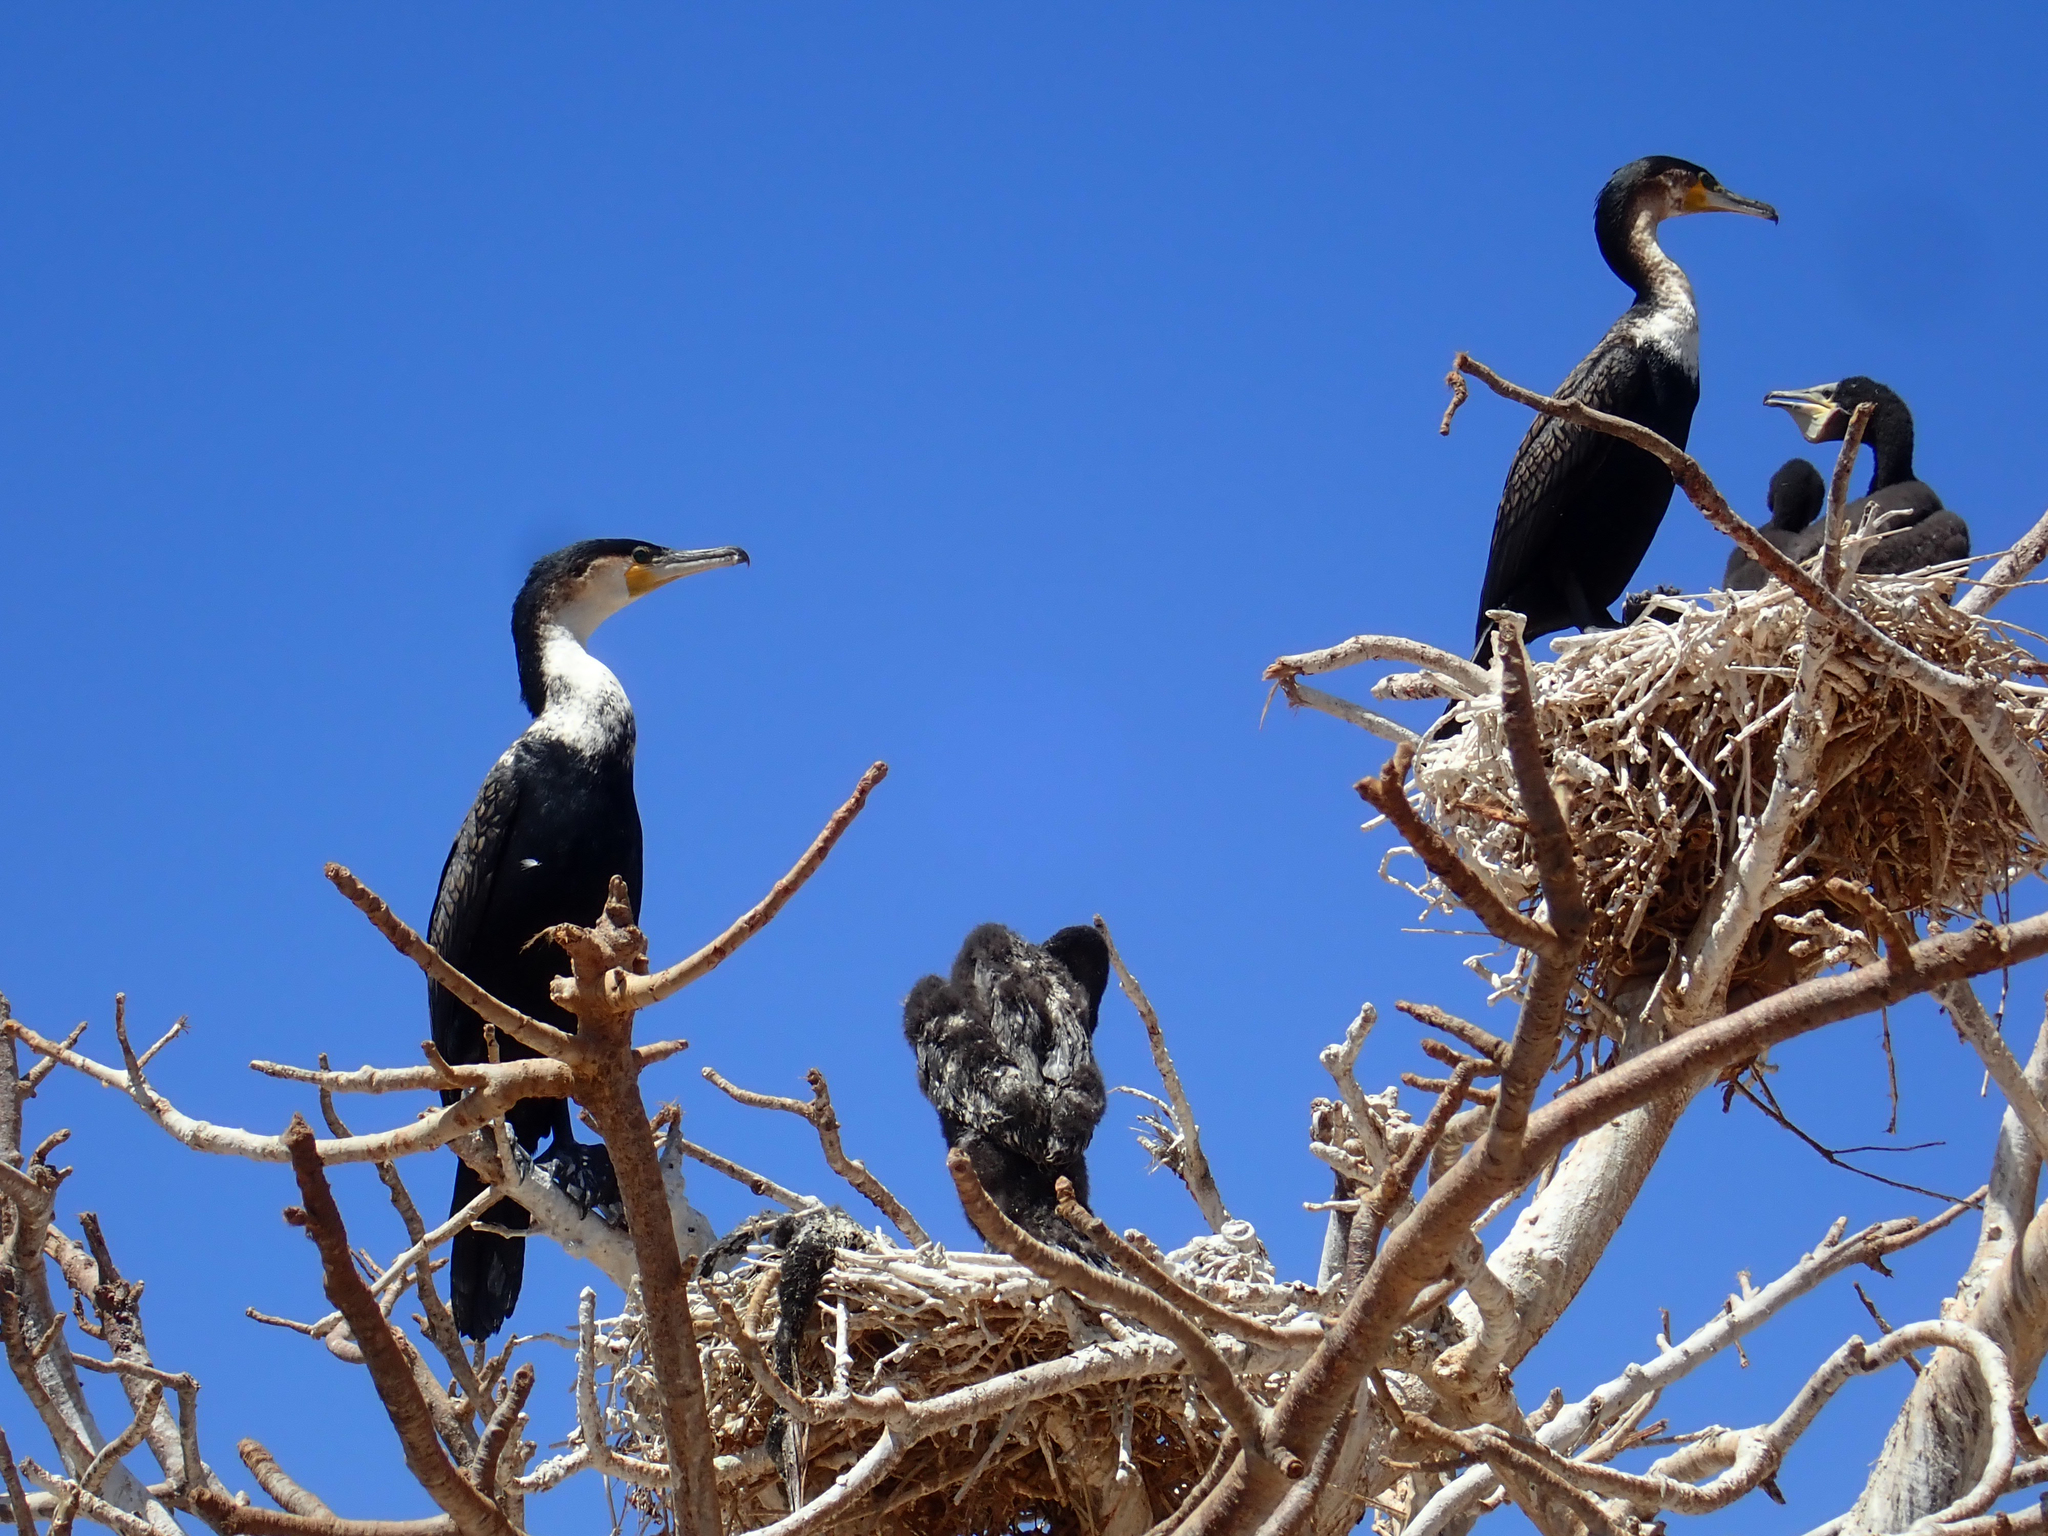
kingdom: Animalia
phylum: Chordata
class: Aves
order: Suliformes
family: Phalacrocoracidae
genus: Phalacrocorax
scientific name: Phalacrocorax carbo
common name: Great cormorant
